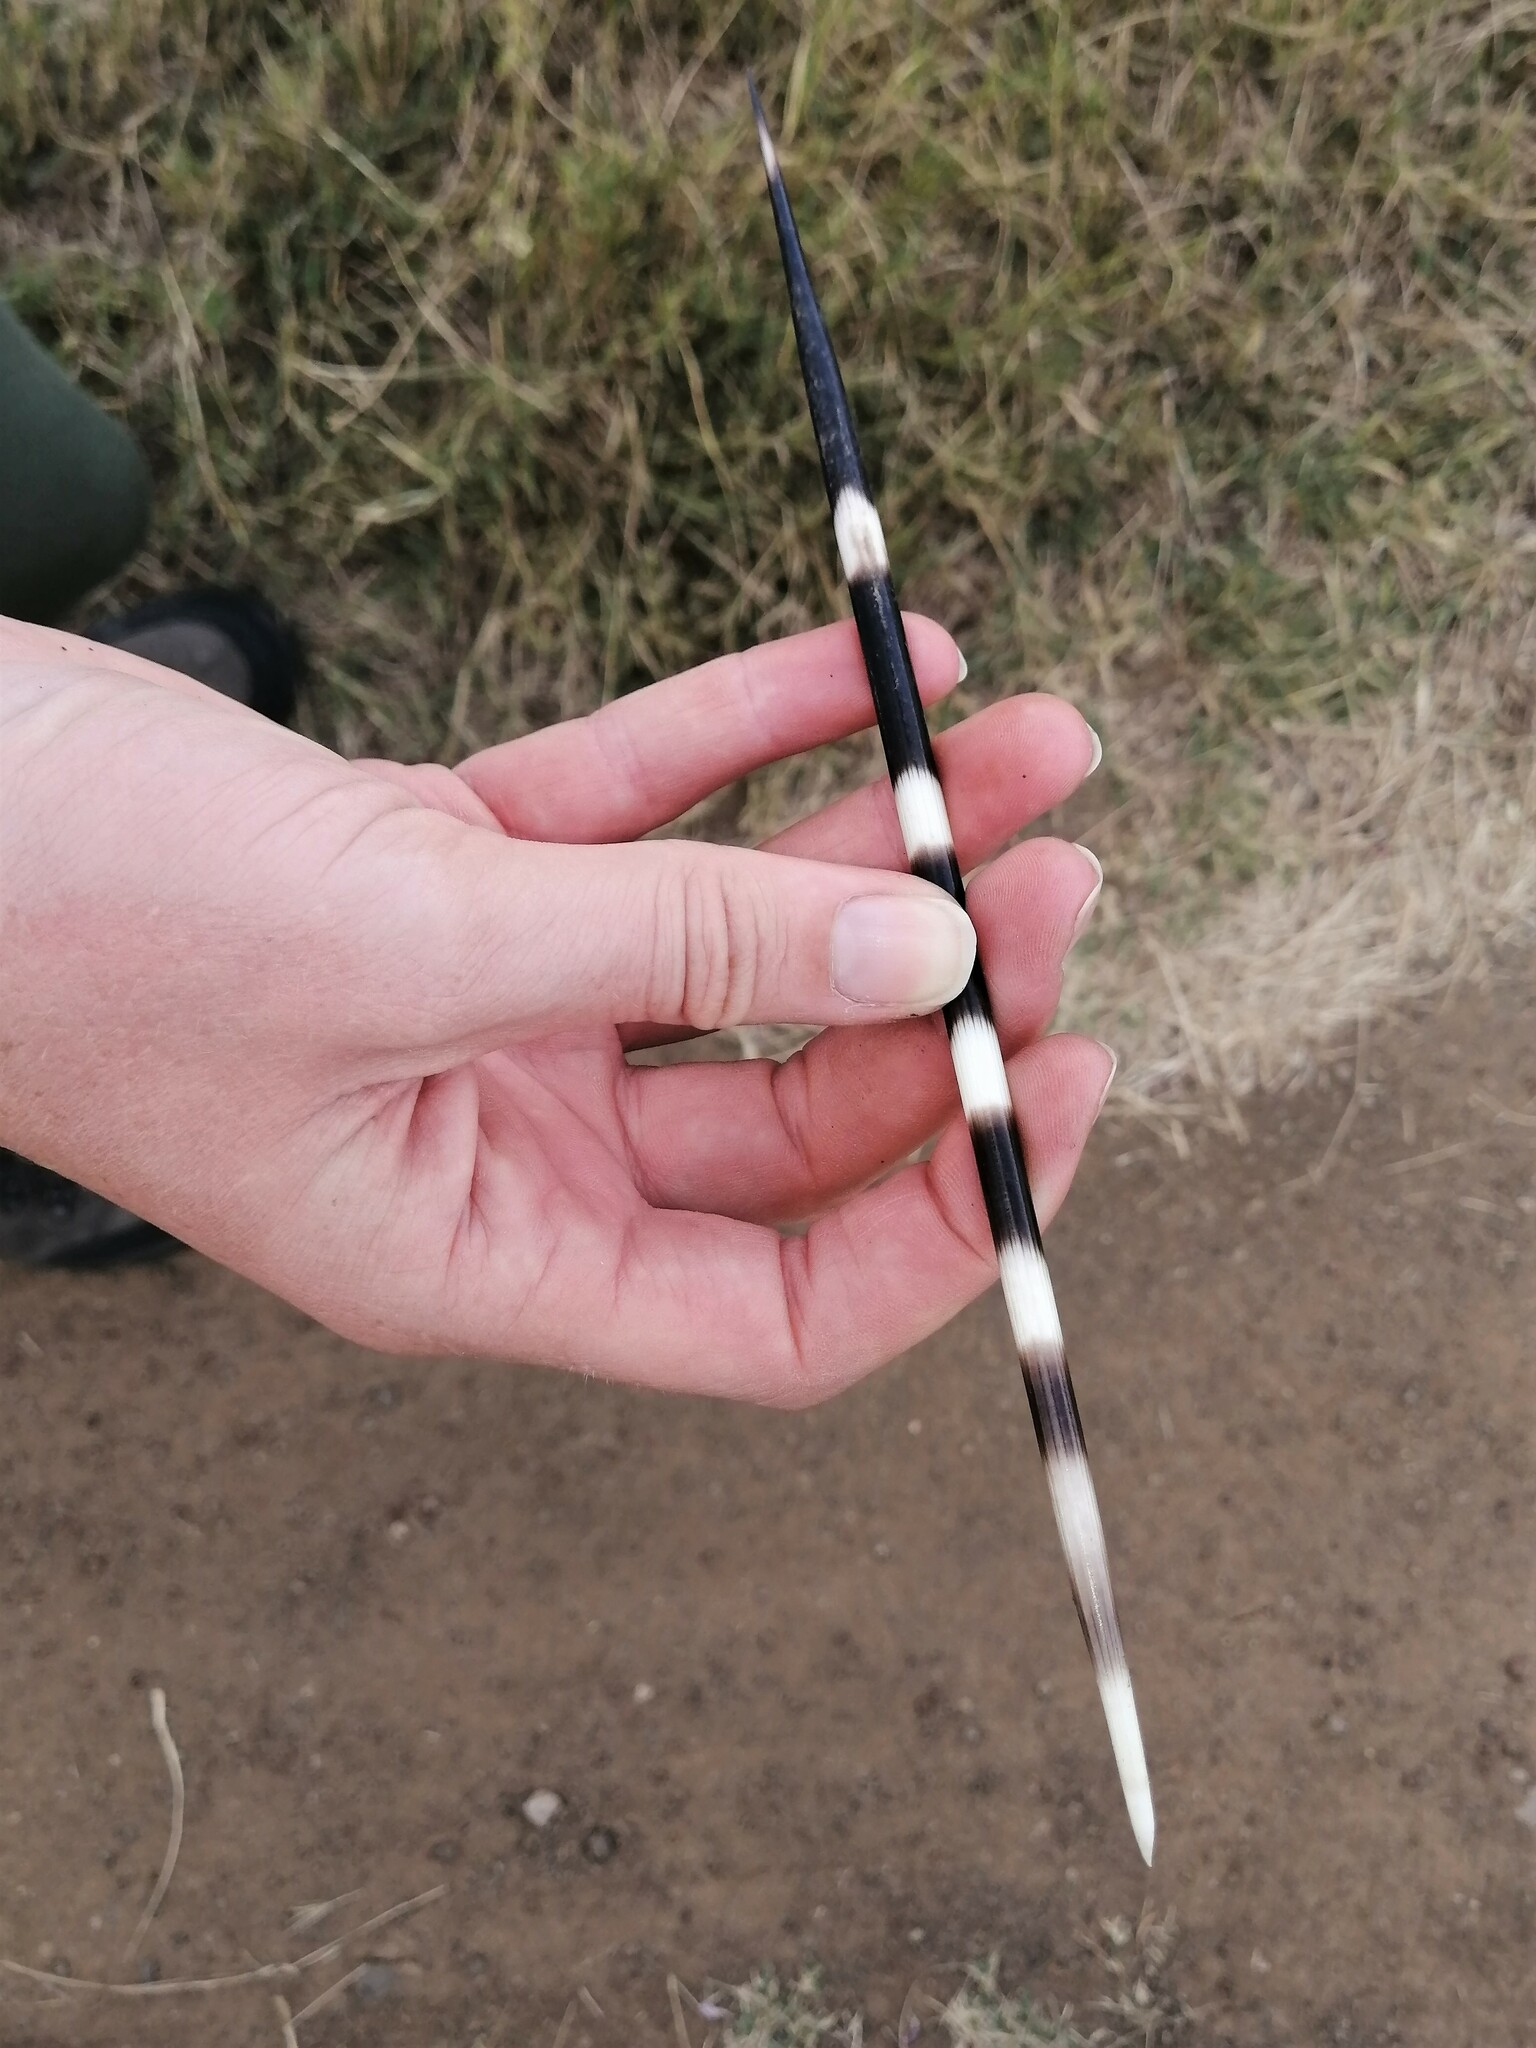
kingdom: Animalia
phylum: Chordata
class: Mammalia
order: Rodentia
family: Hystricidae
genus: Hystrix
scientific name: Hystrix africaeaustralis
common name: Cape porcupine
